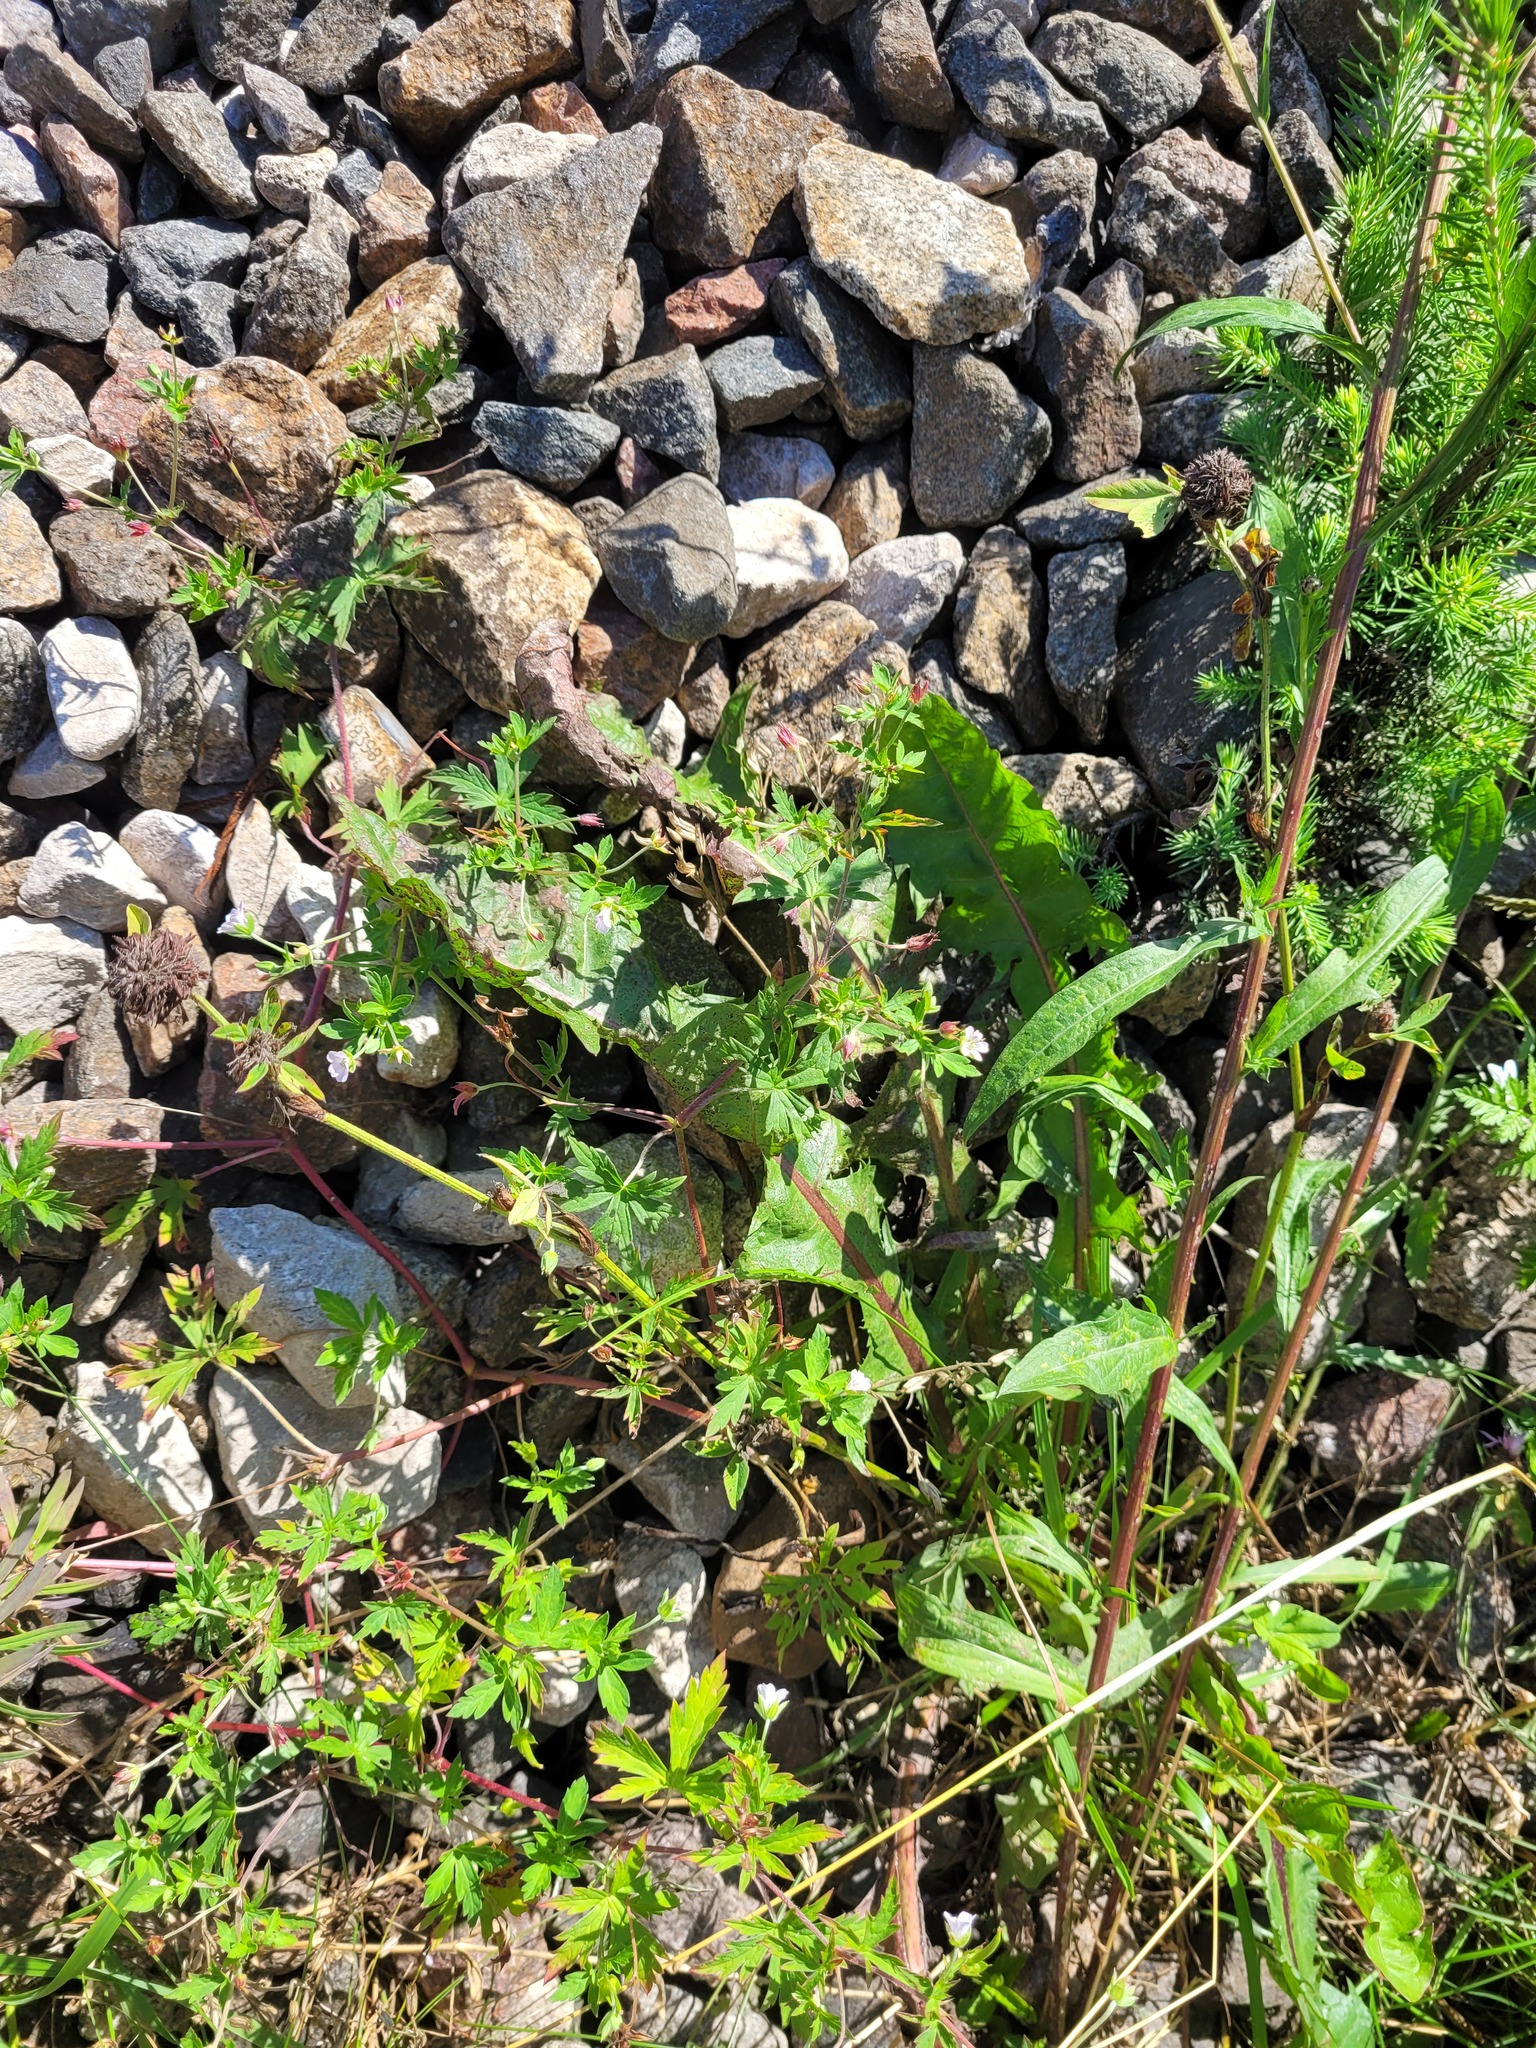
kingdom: Plantae
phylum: Tracheophyta
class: Magnoliopsida
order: Geraniales
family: Geraniaceae
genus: Geranium
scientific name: Geranium sibiricum
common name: Siberian crane's-bill
